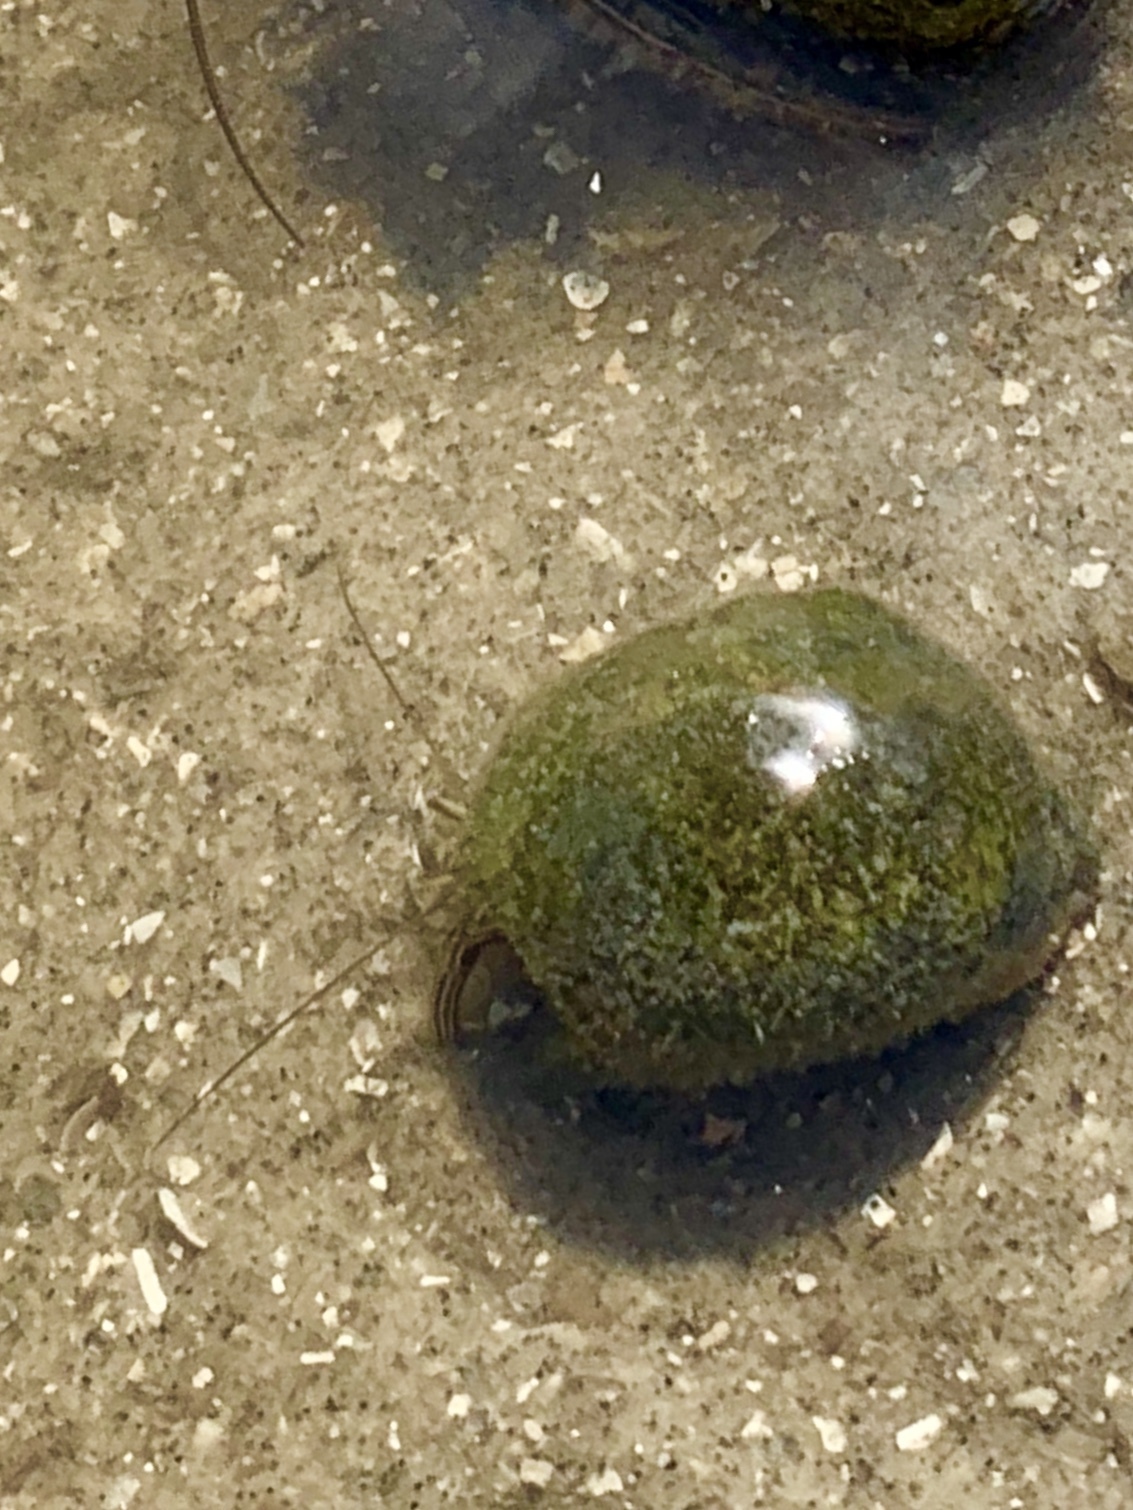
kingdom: Animalia
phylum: Arthropoda
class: Malacostraca
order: Decapoda
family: Diogenidae
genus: Clibanarius
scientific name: Clibanarius vittatus
